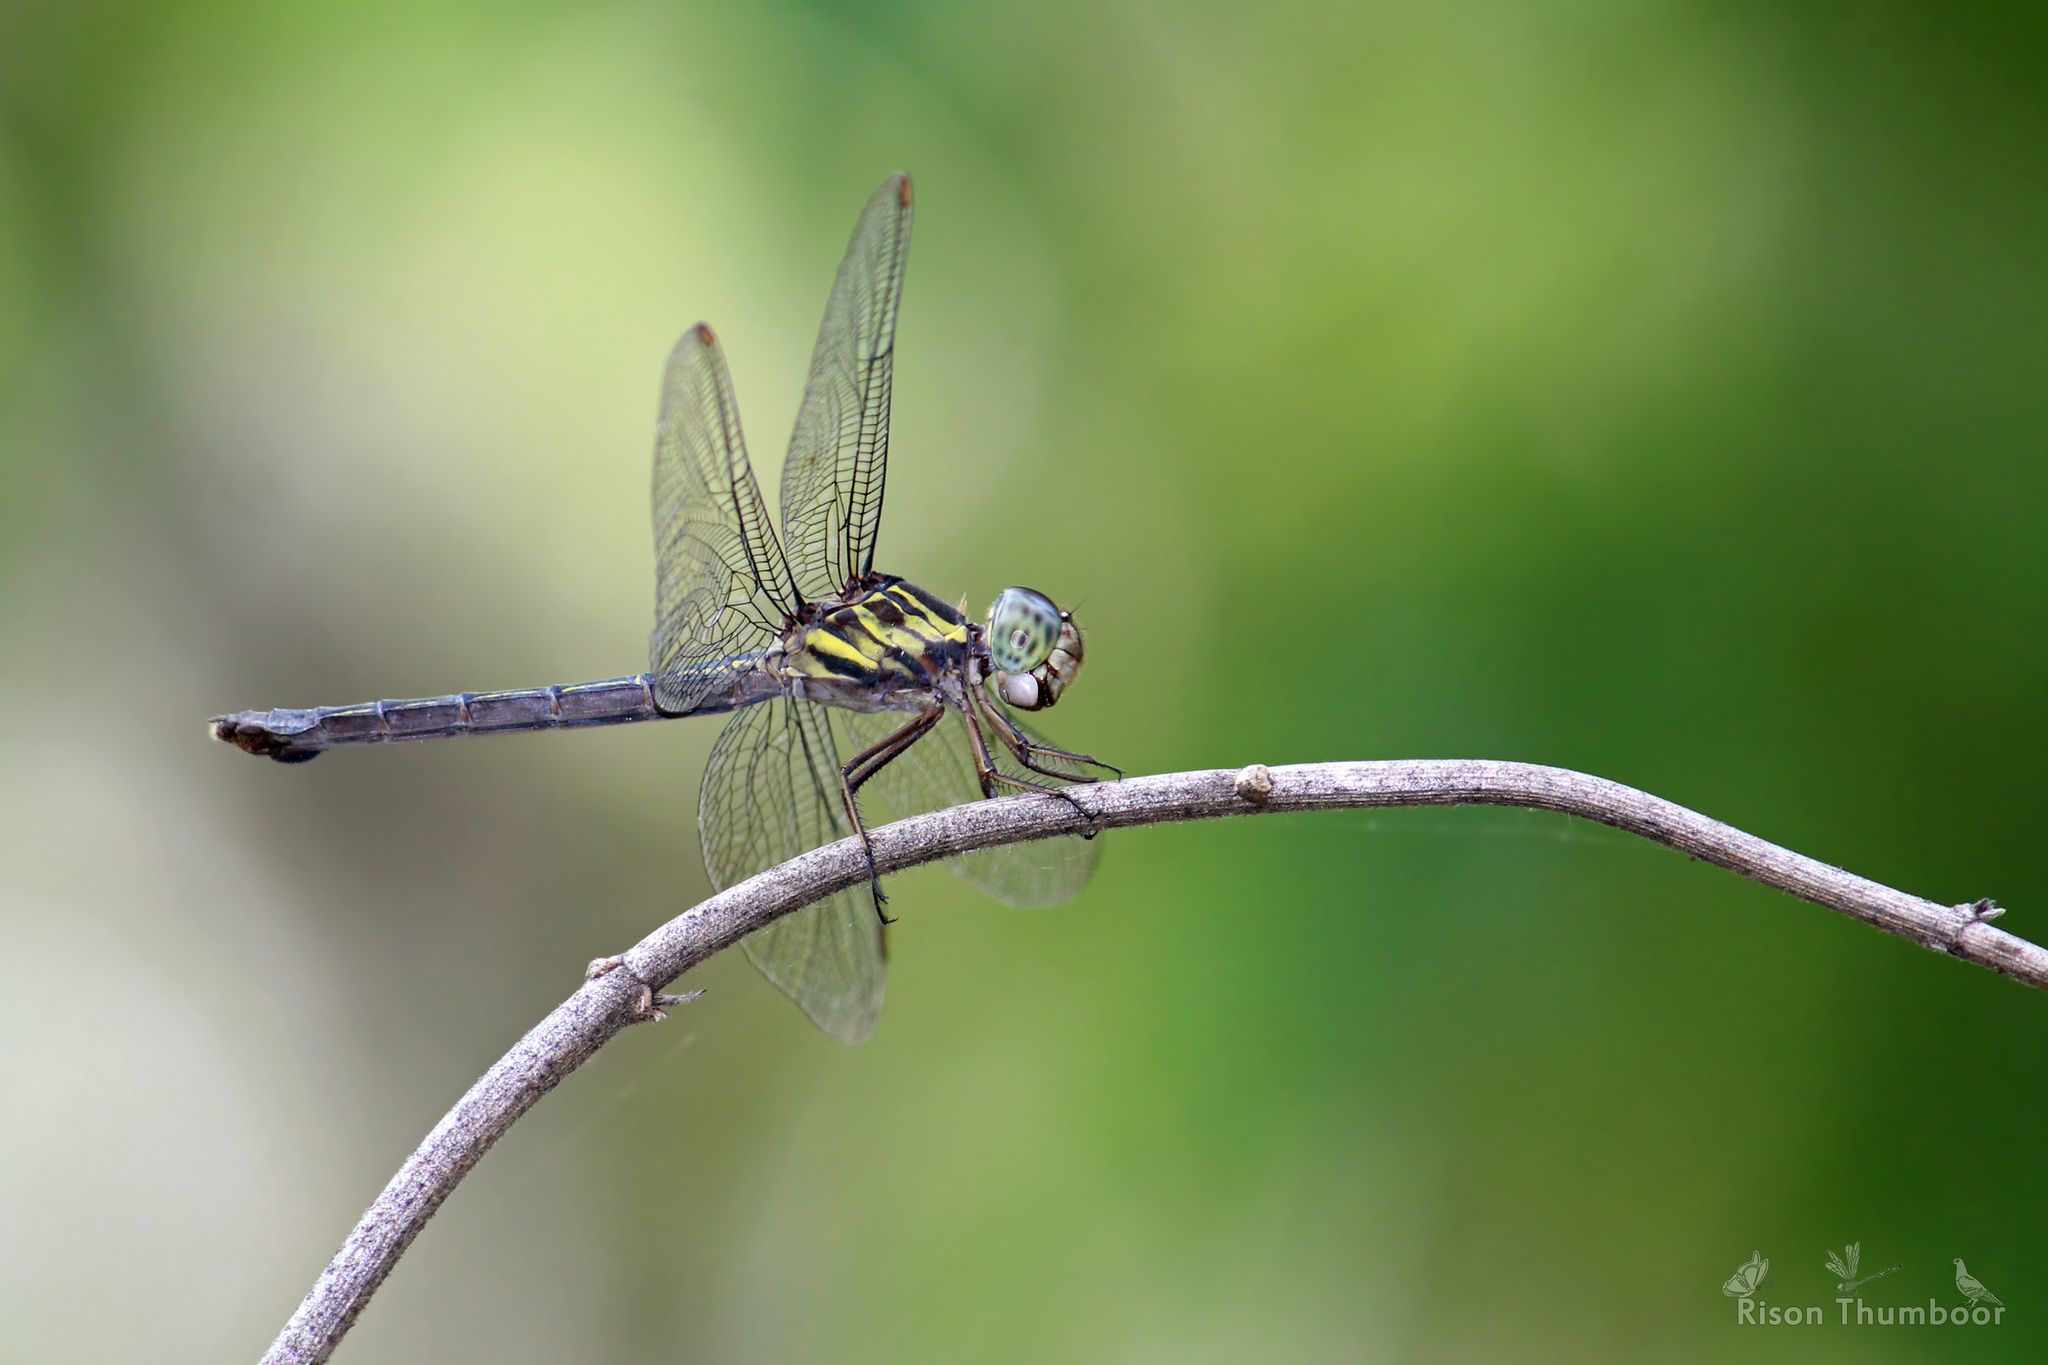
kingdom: Animalia
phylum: Arthropoda
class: Insecta
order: Odonata
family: Libellulidae
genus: Cratilla
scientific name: Cratilla lineata
